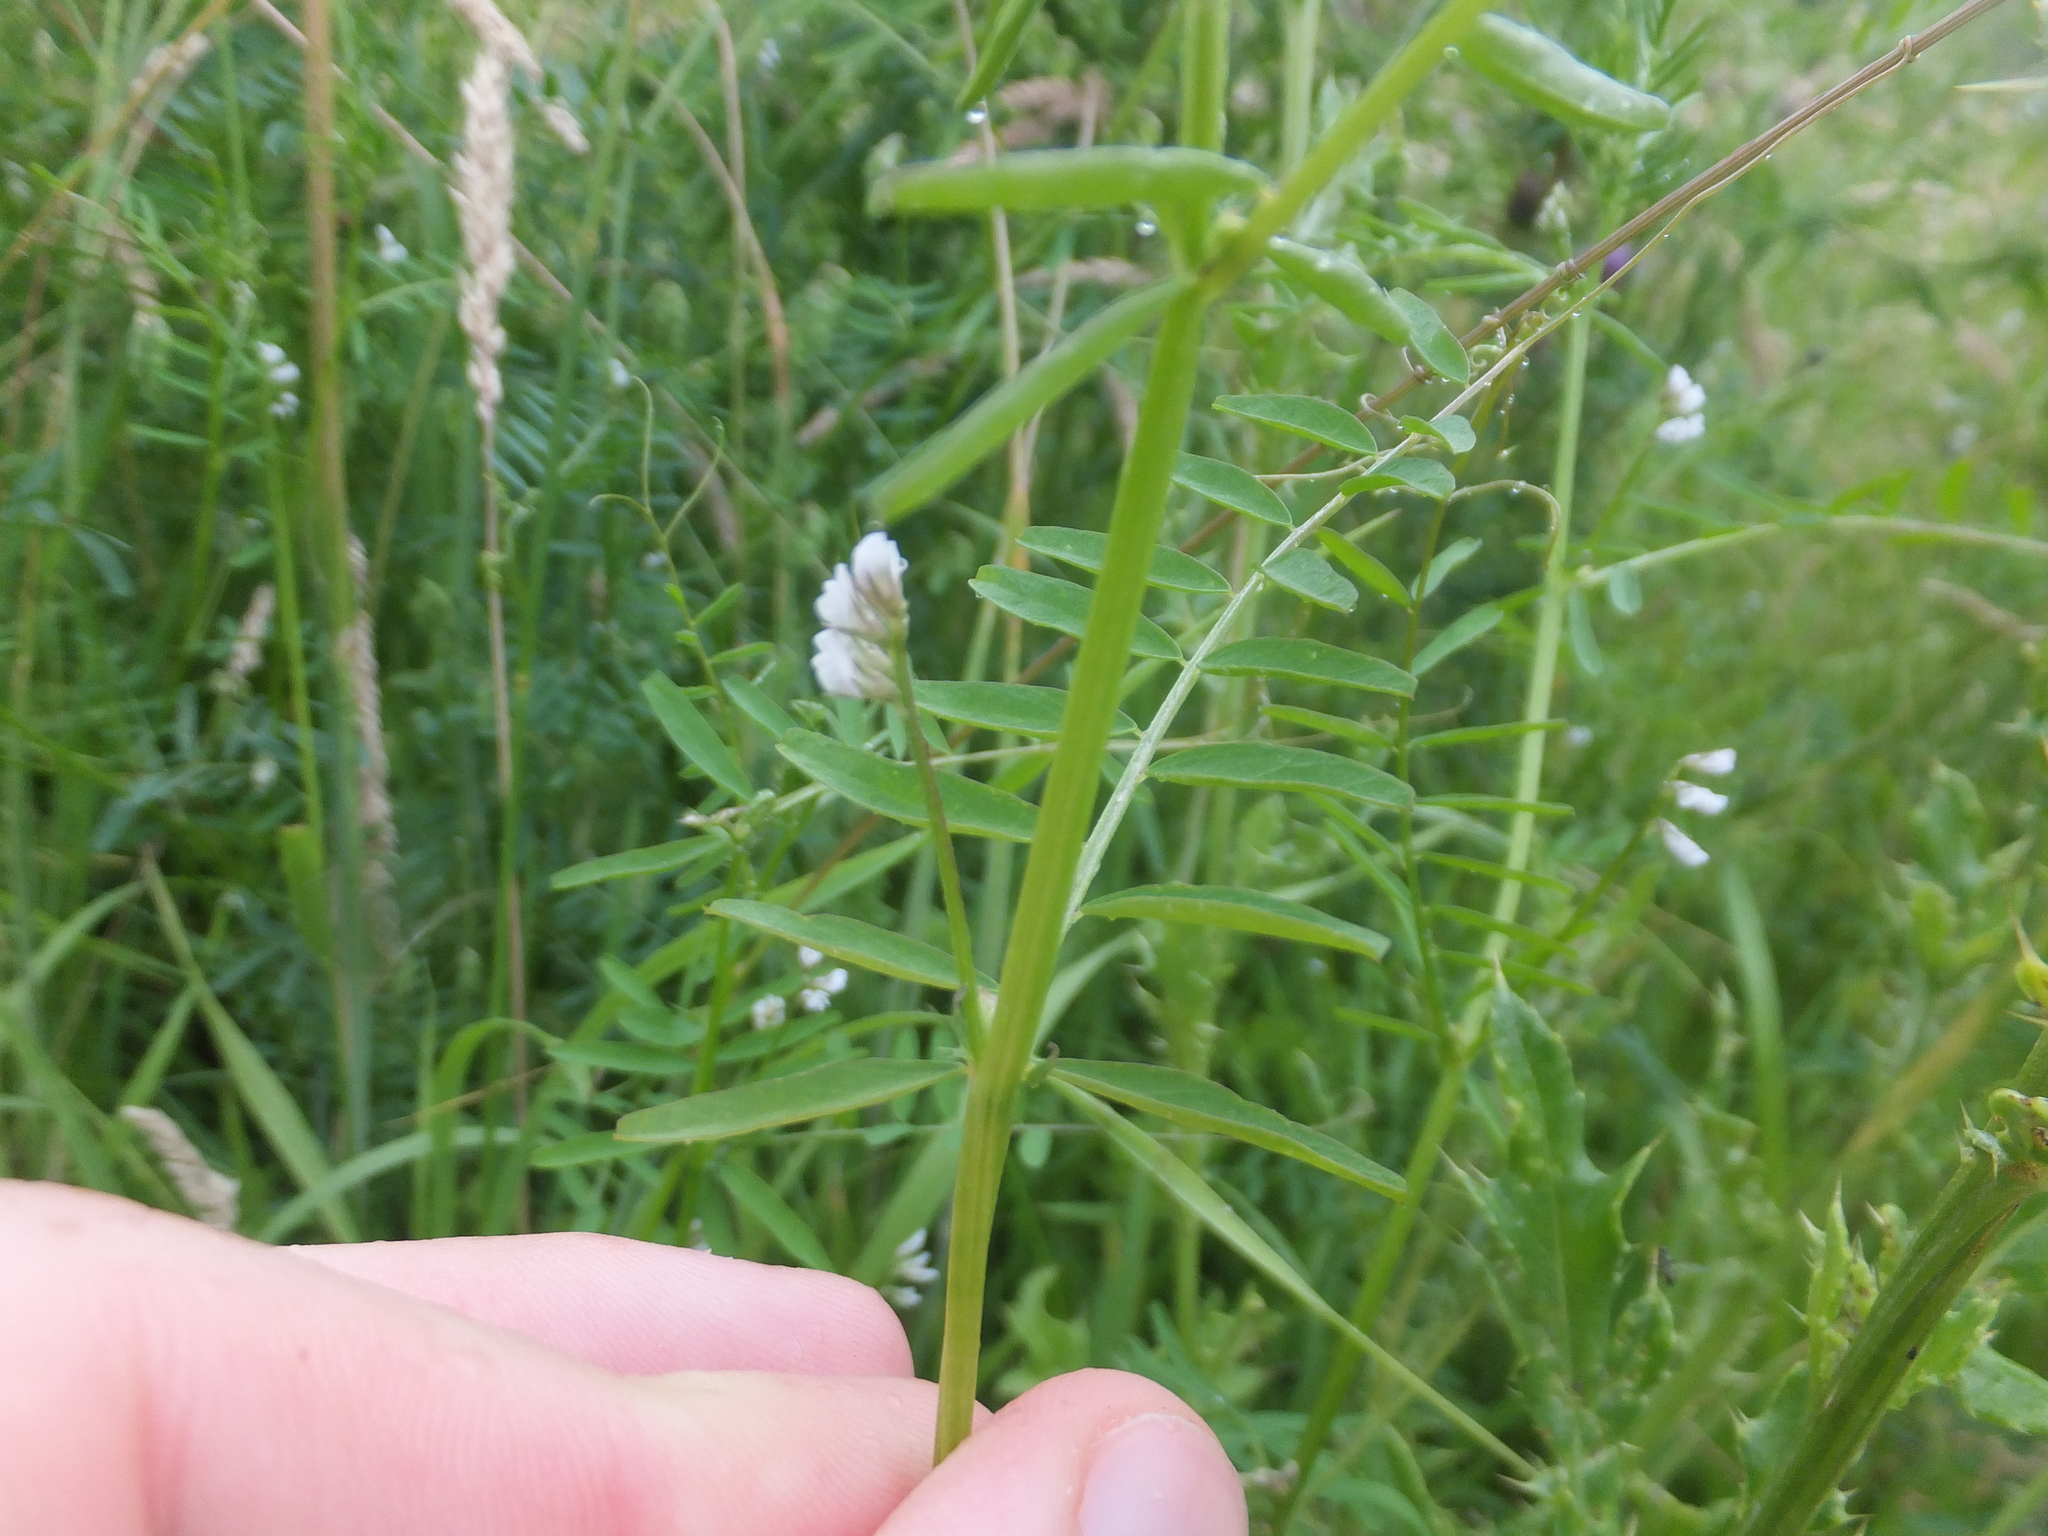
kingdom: Plantae
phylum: Tracheophyta
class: Magnoliopsida
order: Fabales
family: Fabaceae
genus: Vicia
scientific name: Vicia hirsuta
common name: Tiny vetch
